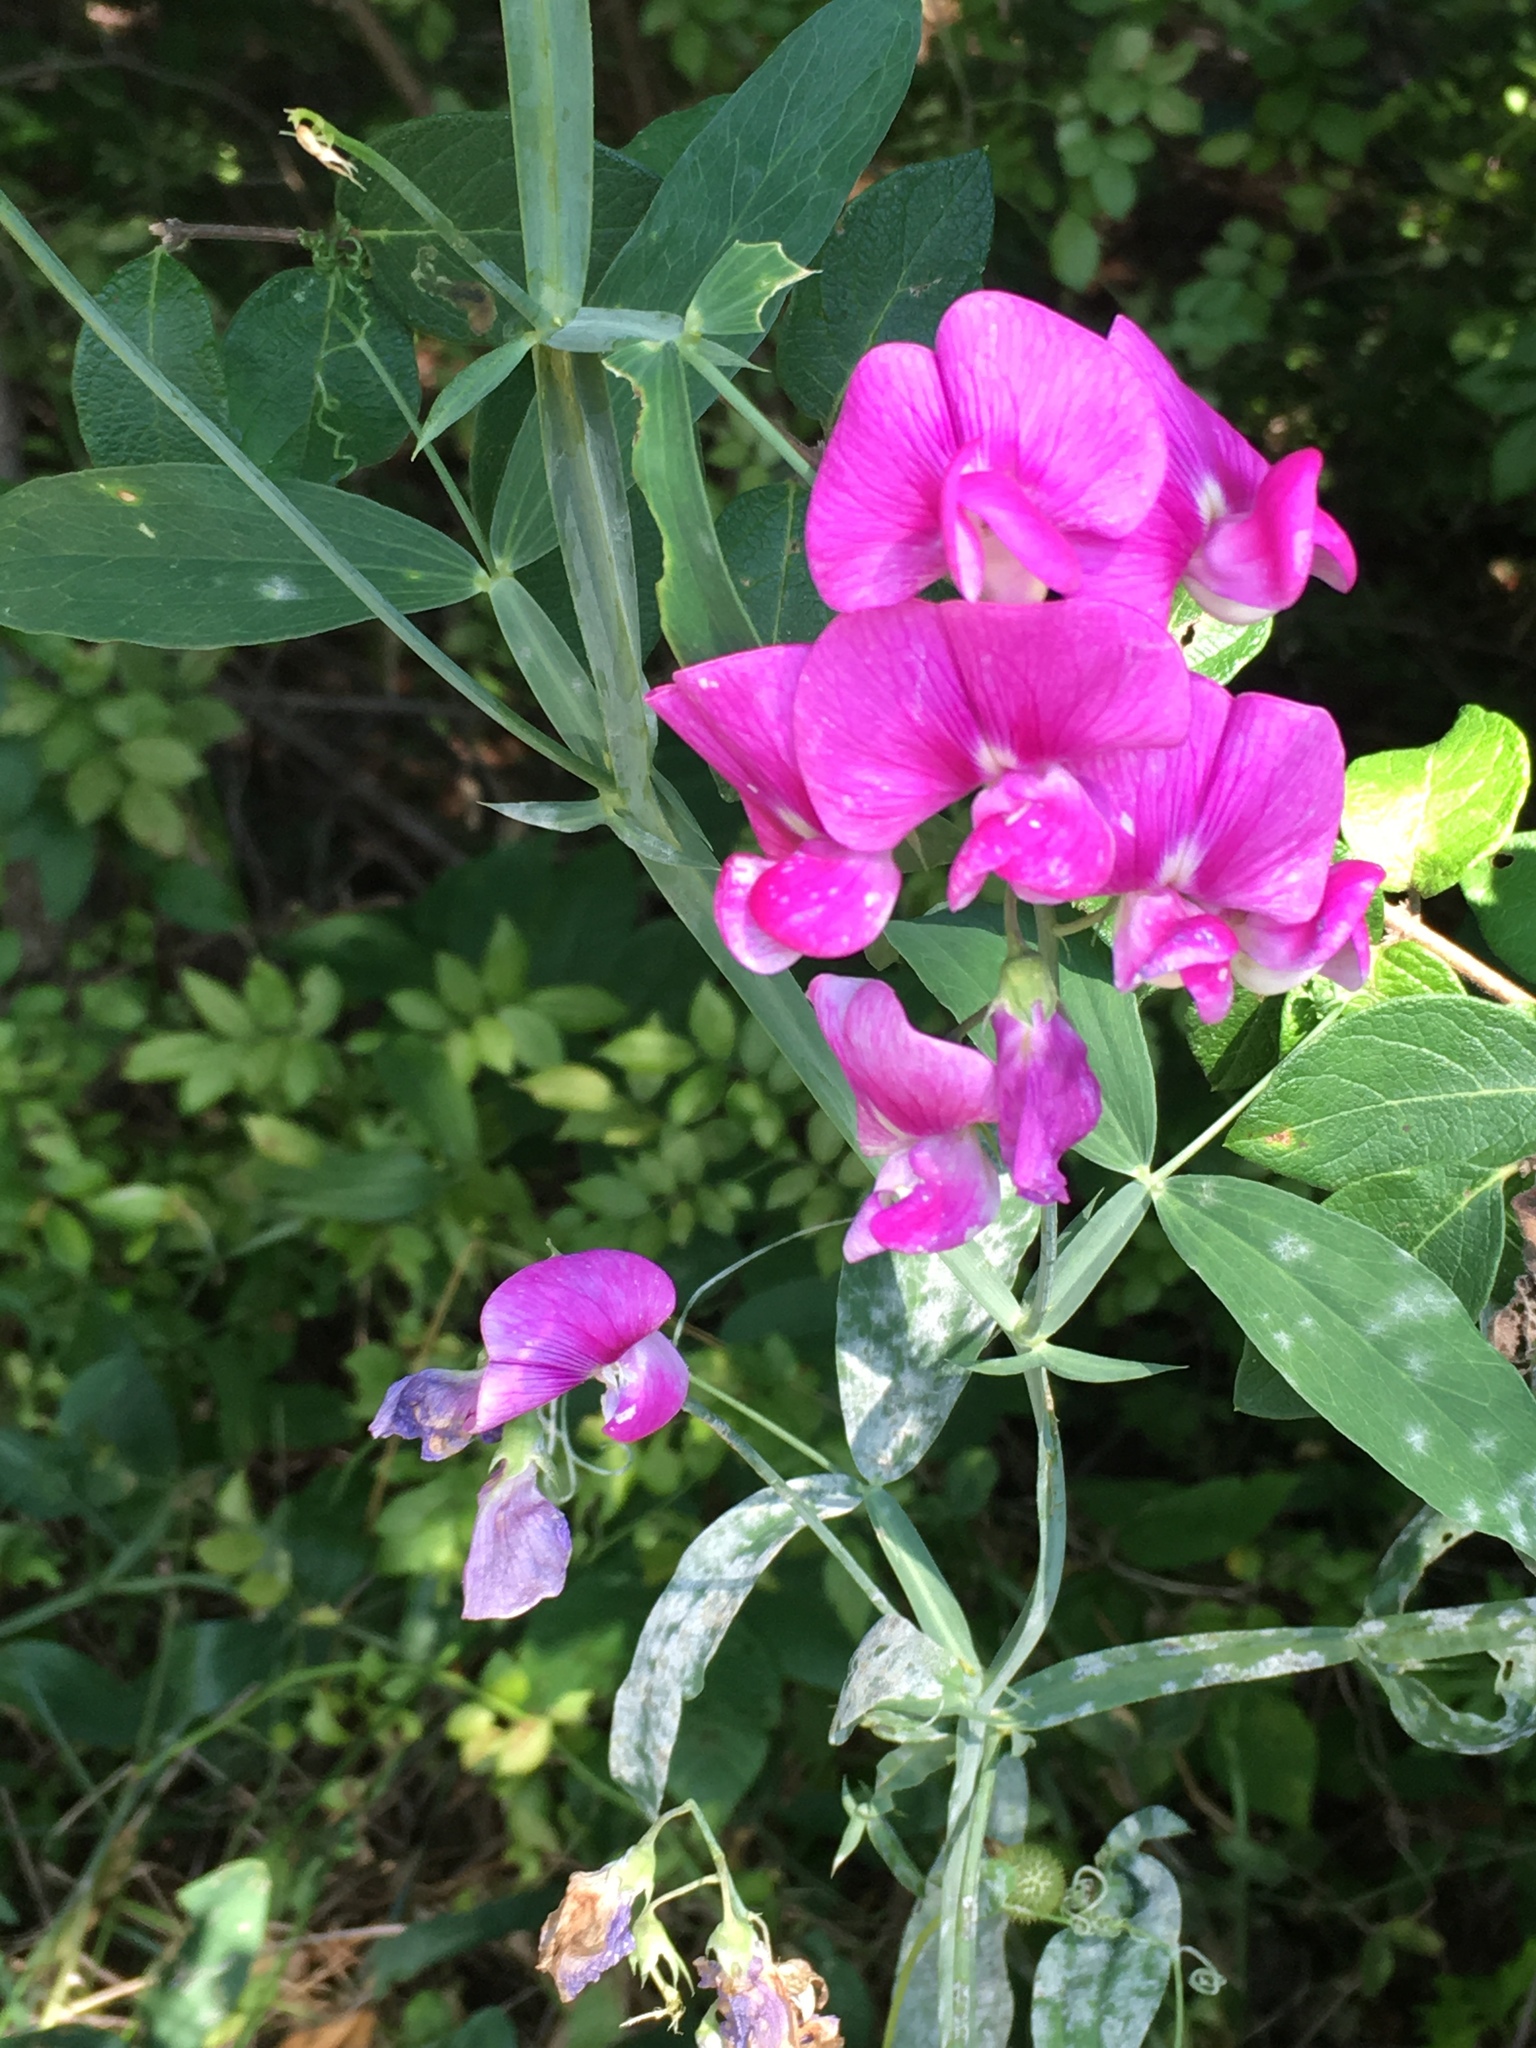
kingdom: Plantae
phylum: Tracheophyta
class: Magnoliopsida
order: Fabales
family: Fabaceae
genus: Lathyrus
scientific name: Lathyrus latifolius
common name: Perennial pea
